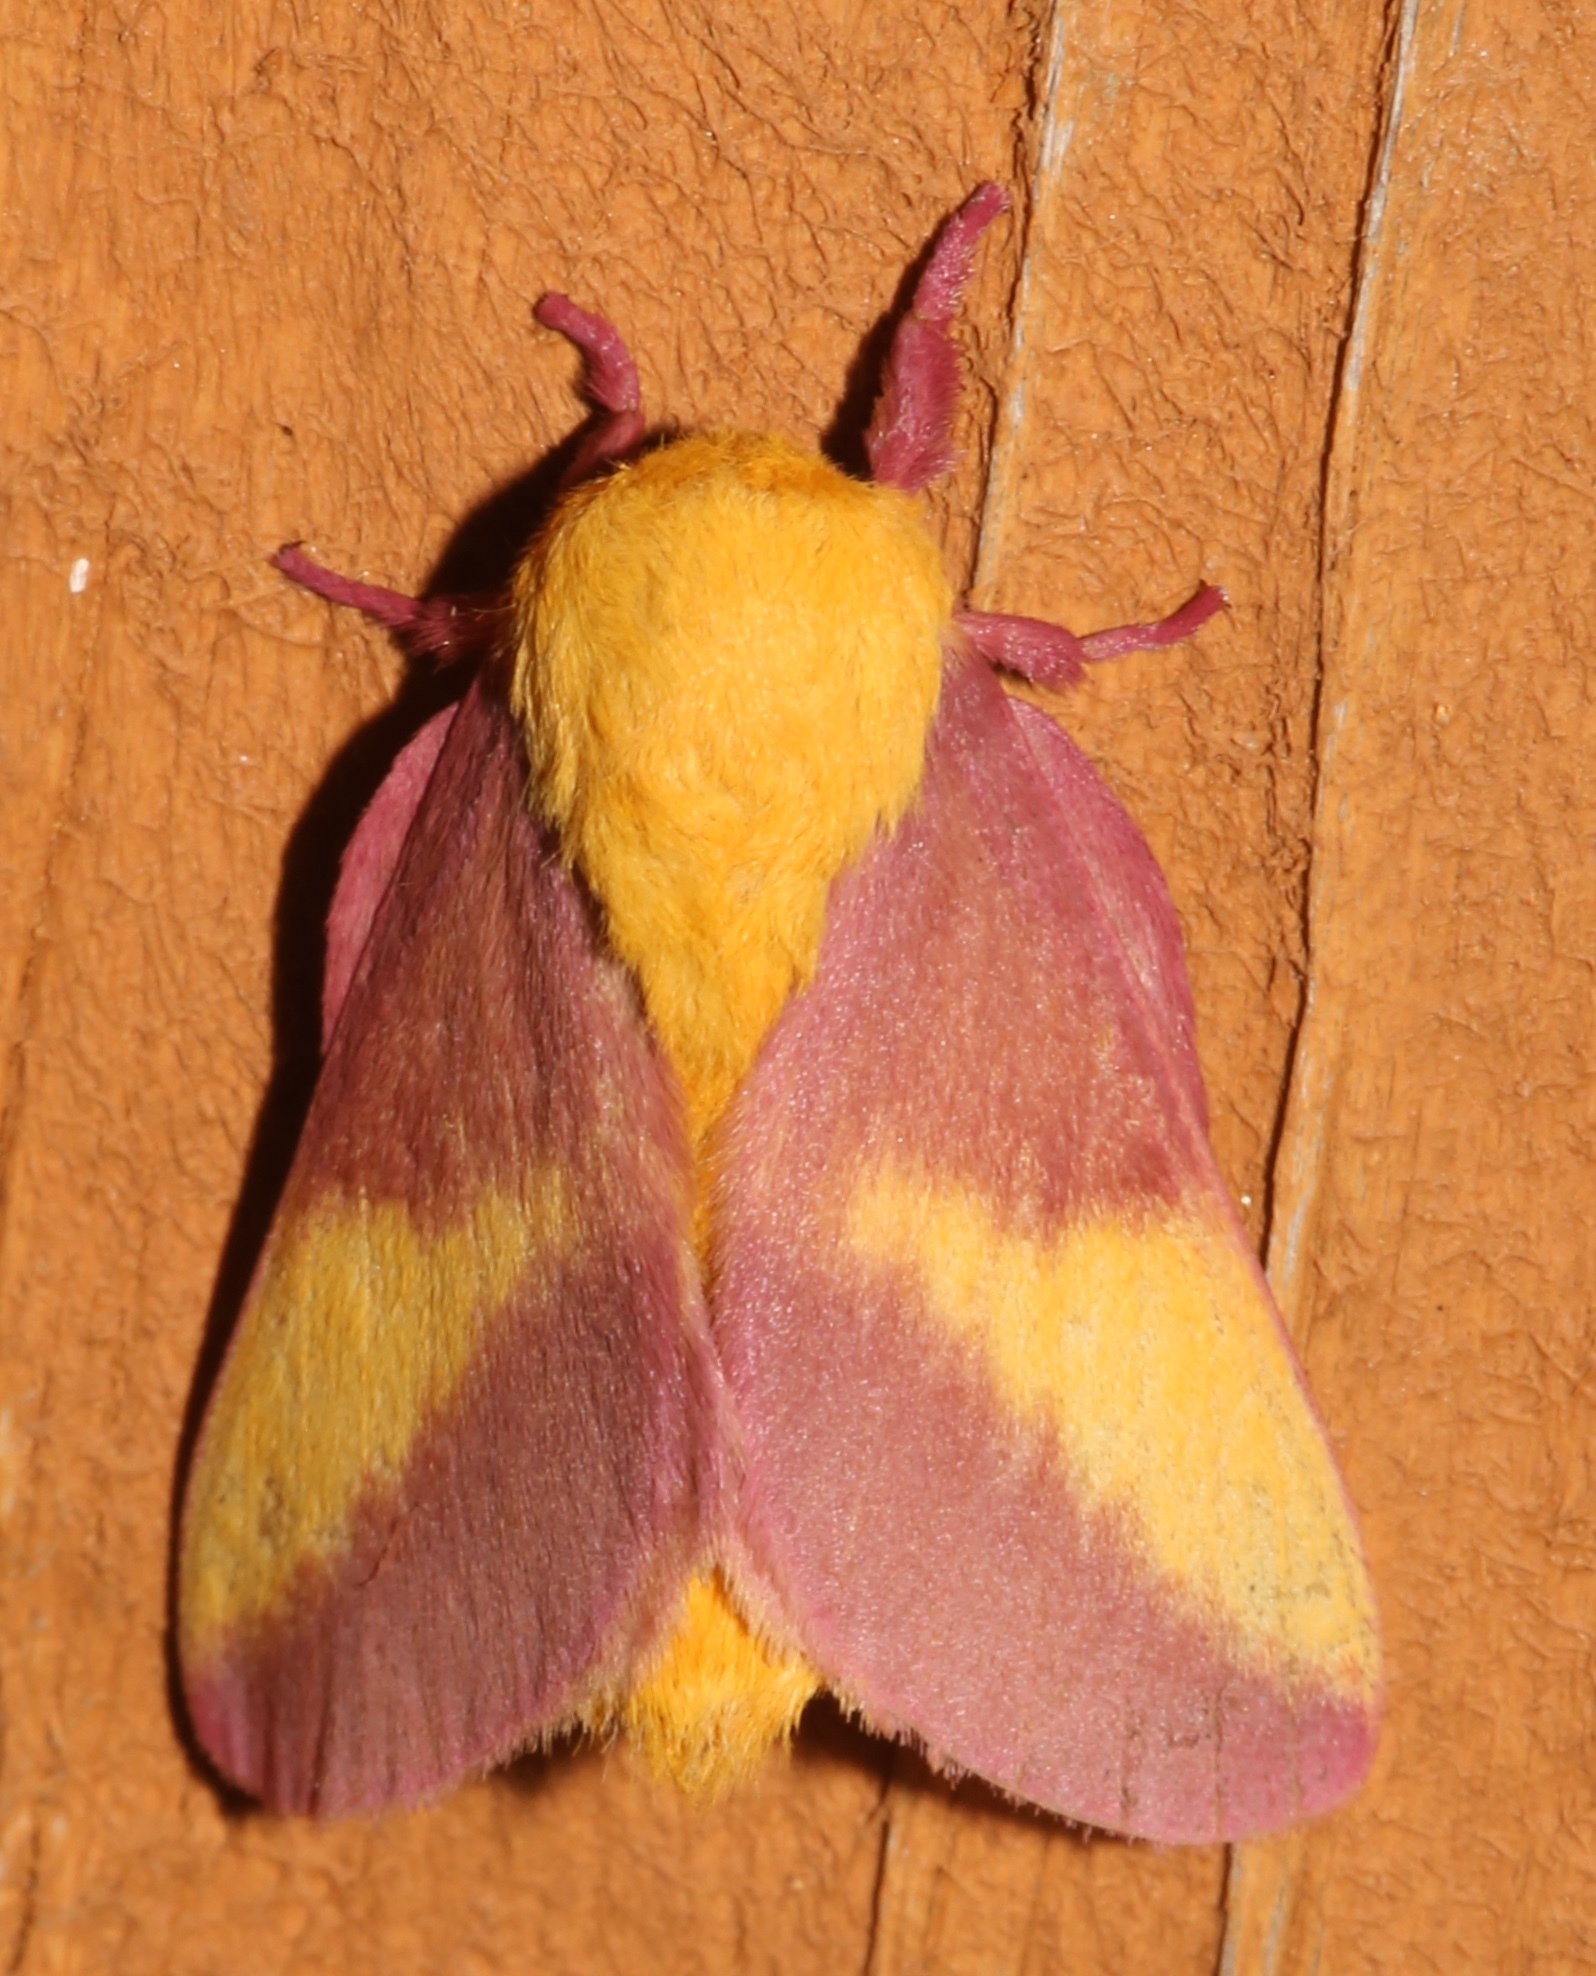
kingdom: Animalia
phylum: Arthropoda
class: Insecta
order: Lepidoptera
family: Saturniidae
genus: Dryocampa
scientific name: Dryocampa rubicunda
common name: Rosy maple moth
